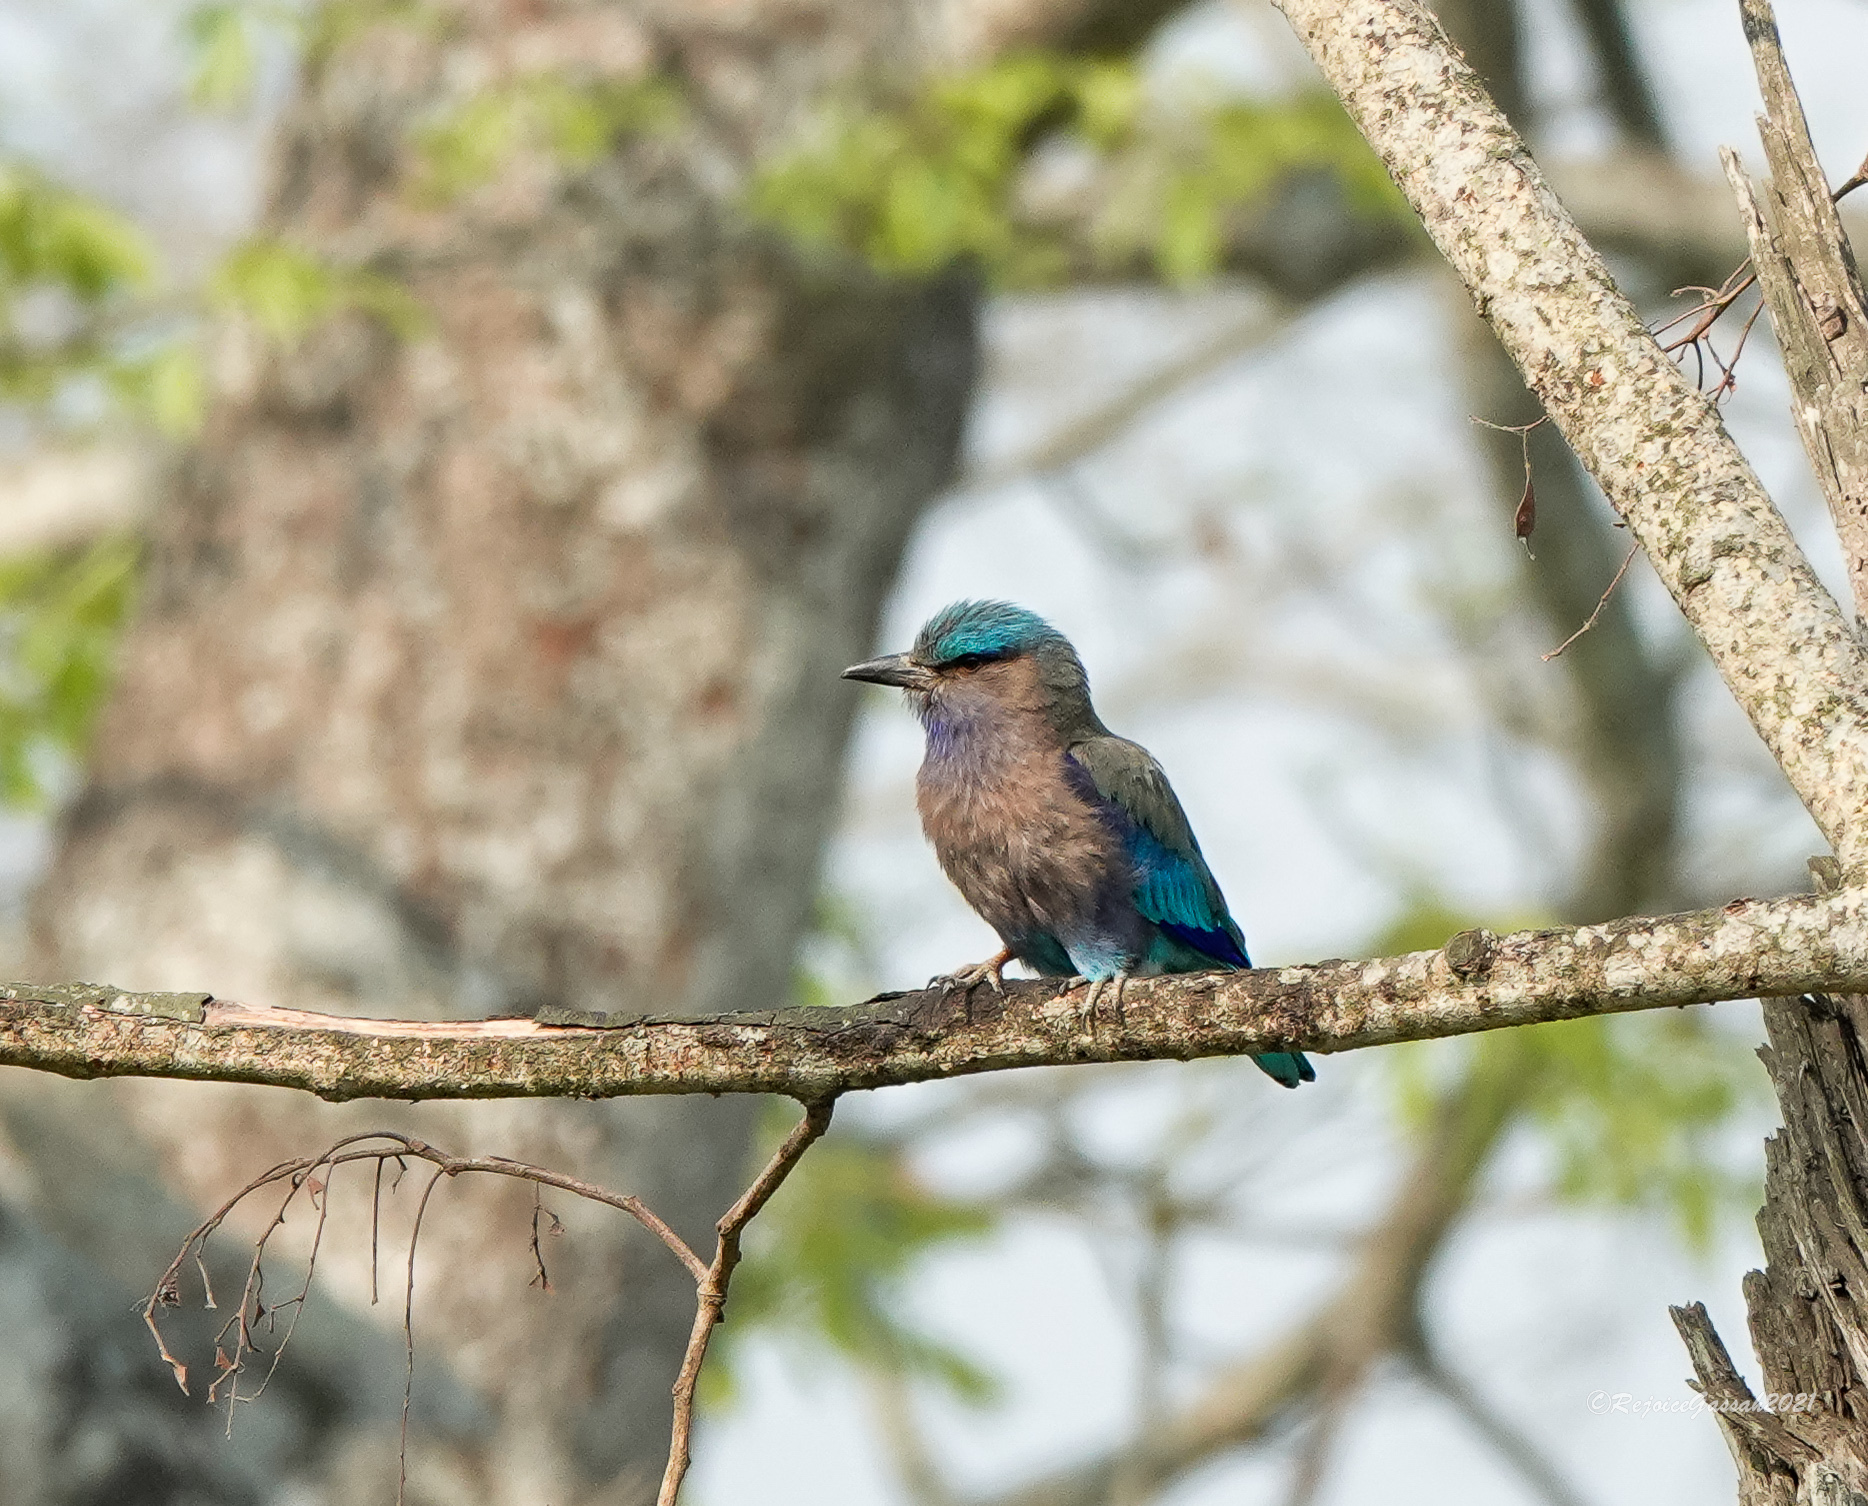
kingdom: Animalia
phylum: Chordata
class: Aves
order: Coraciiformes
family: Coraciidae
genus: Coracias
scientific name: Coracias affinis
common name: Indochinese roller
